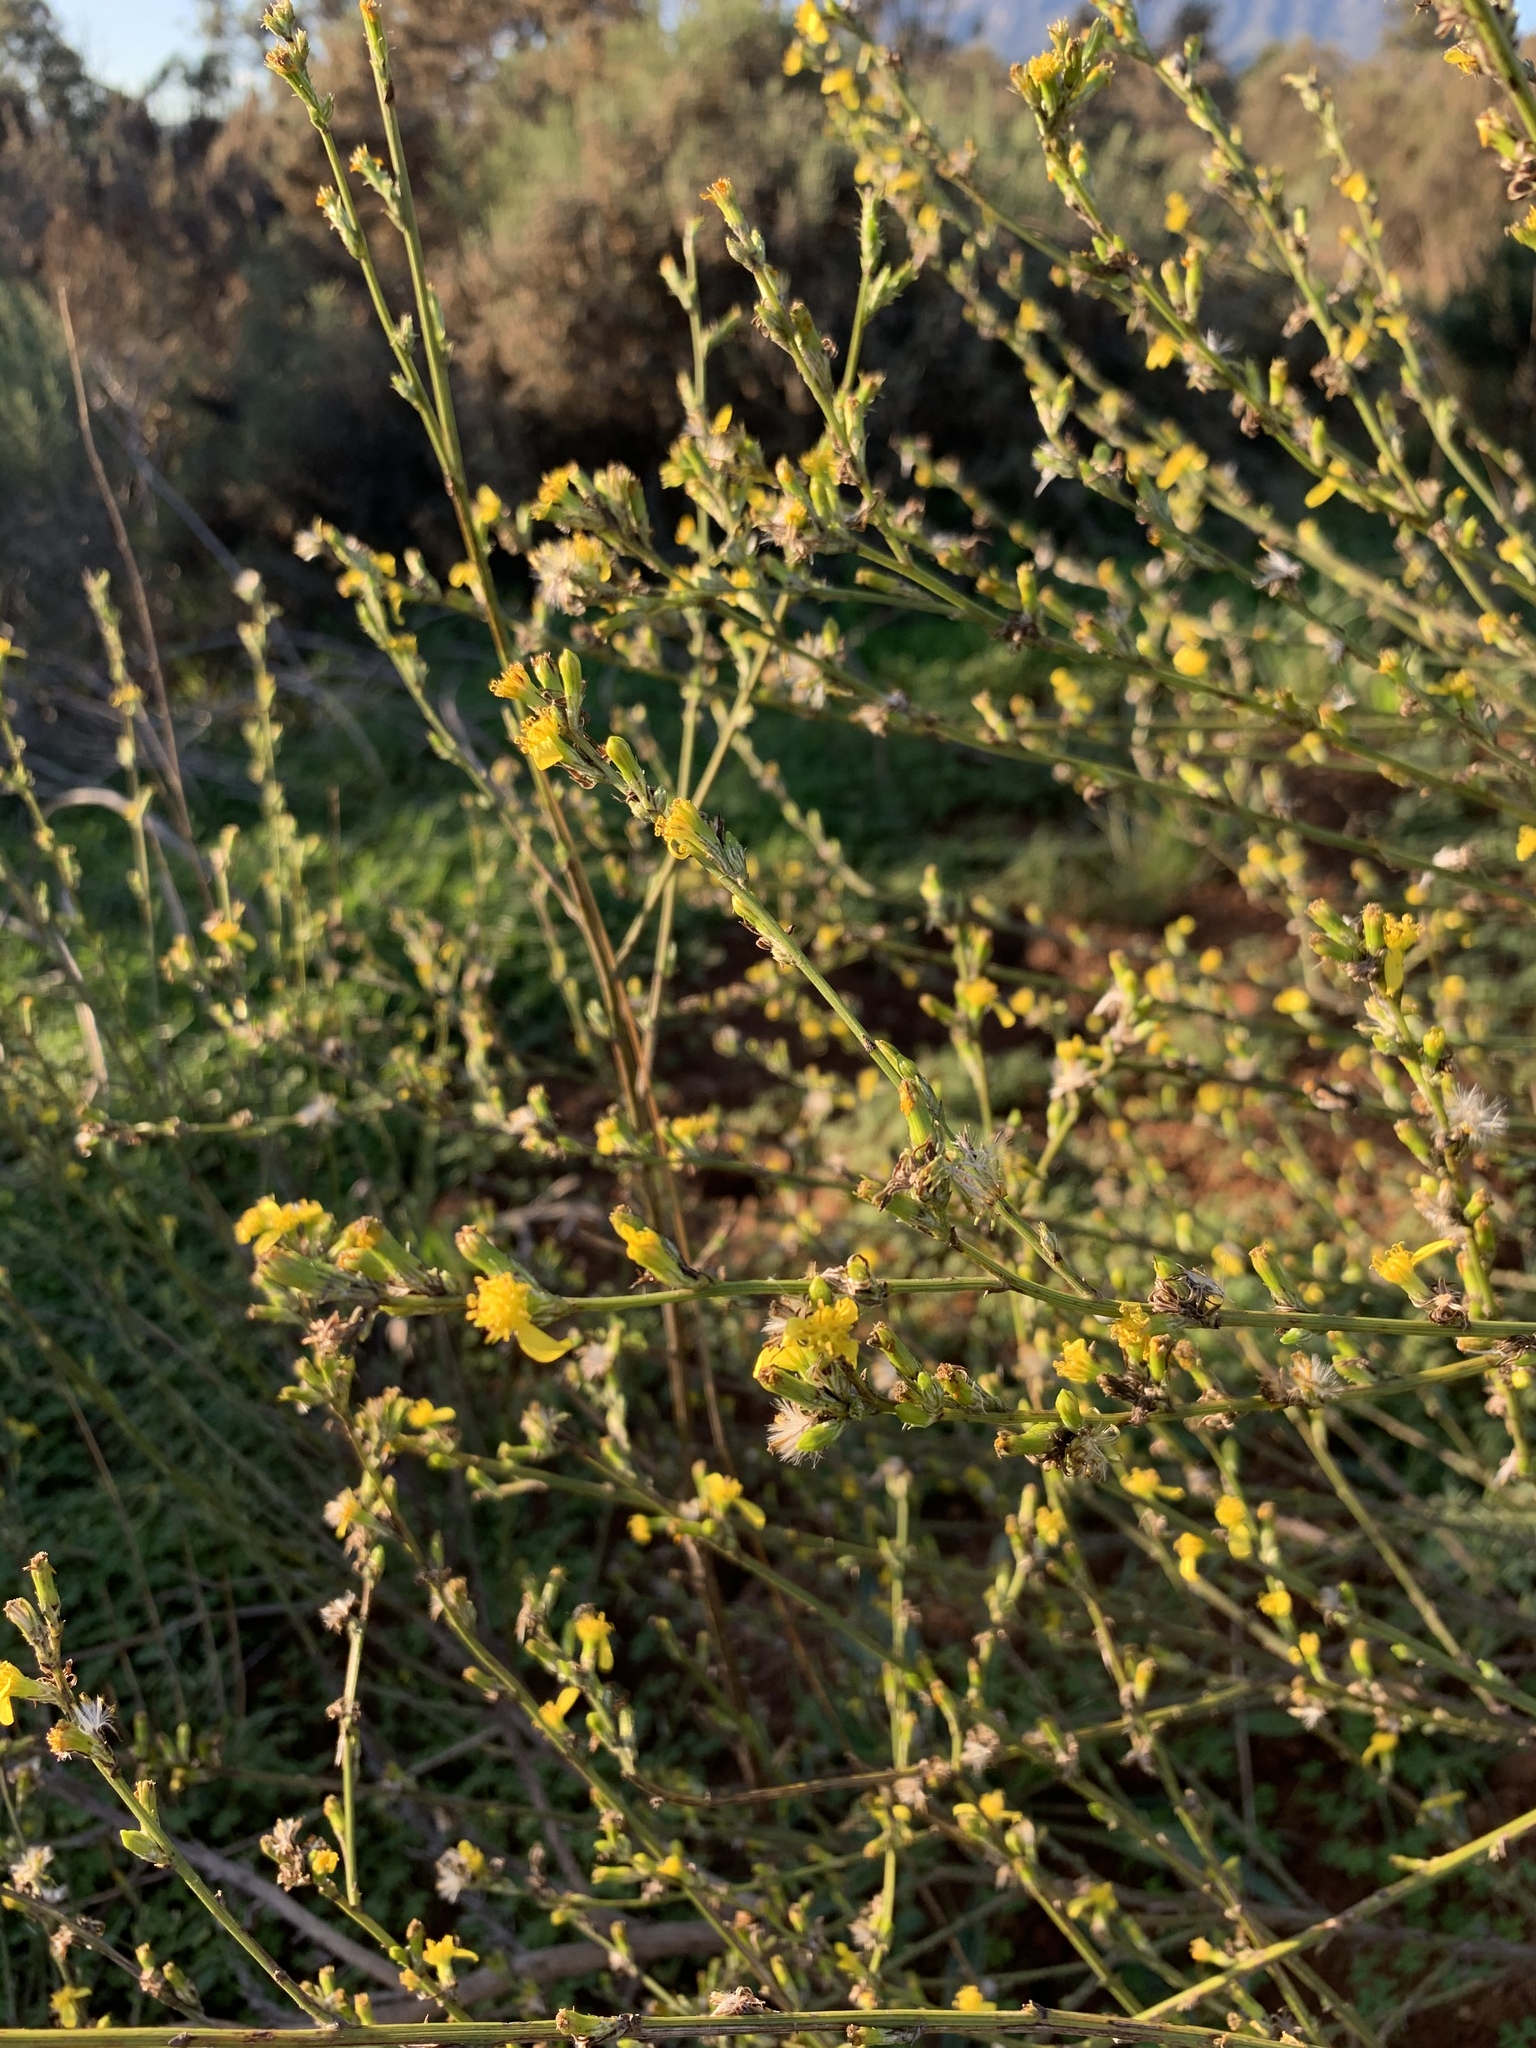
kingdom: Plantae
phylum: Tracheophyta
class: Magnoliopsida
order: Asterales
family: Asteraceae
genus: Senecio
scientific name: Senecio pubigerus
